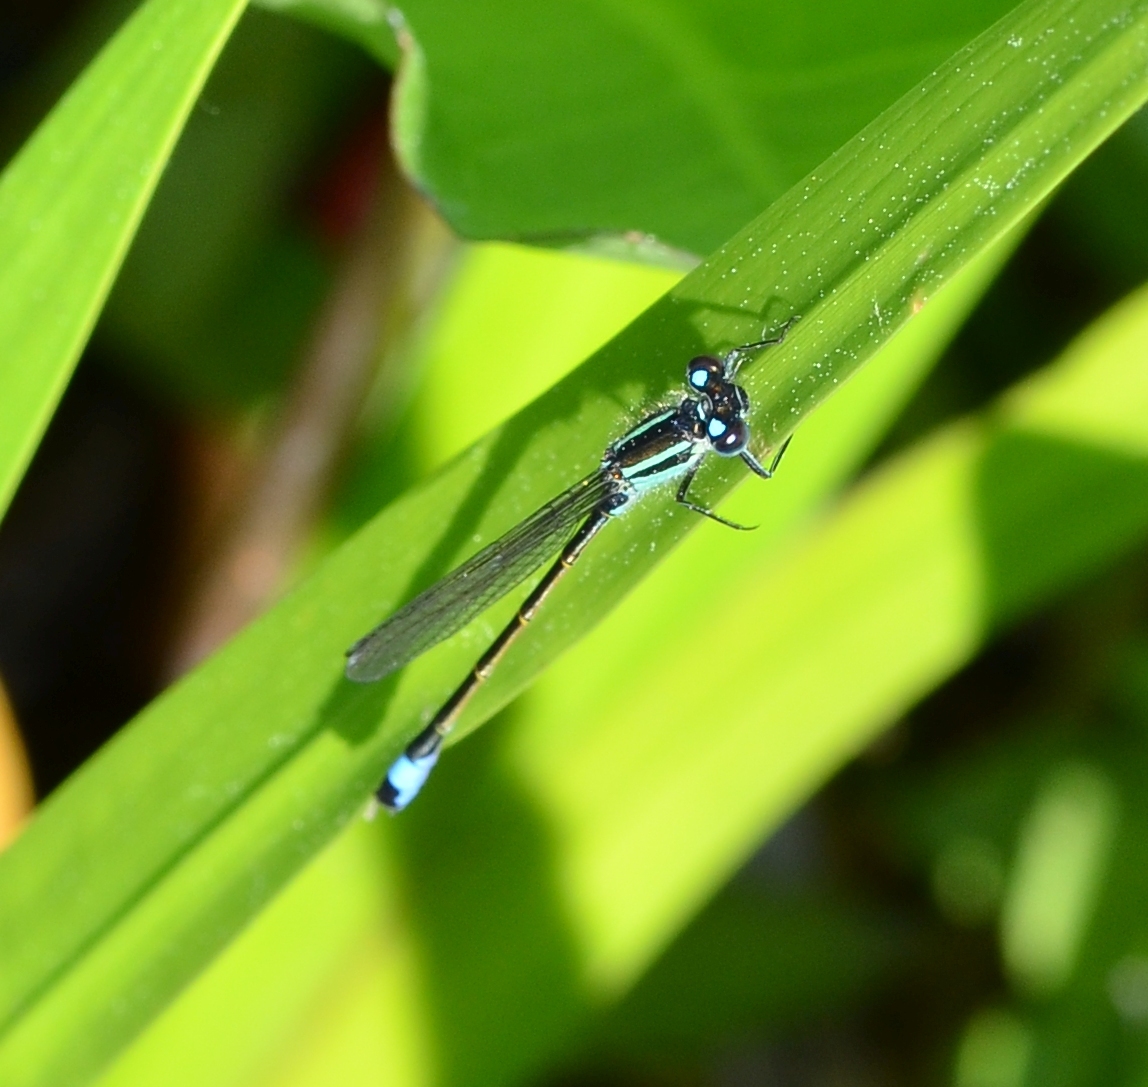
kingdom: Animalia
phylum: Arthropoda
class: Insecta
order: Odonata
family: Coenagrionidae
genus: Ischnura
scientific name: Ischnura elegans
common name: Blue-tailed damselfly
